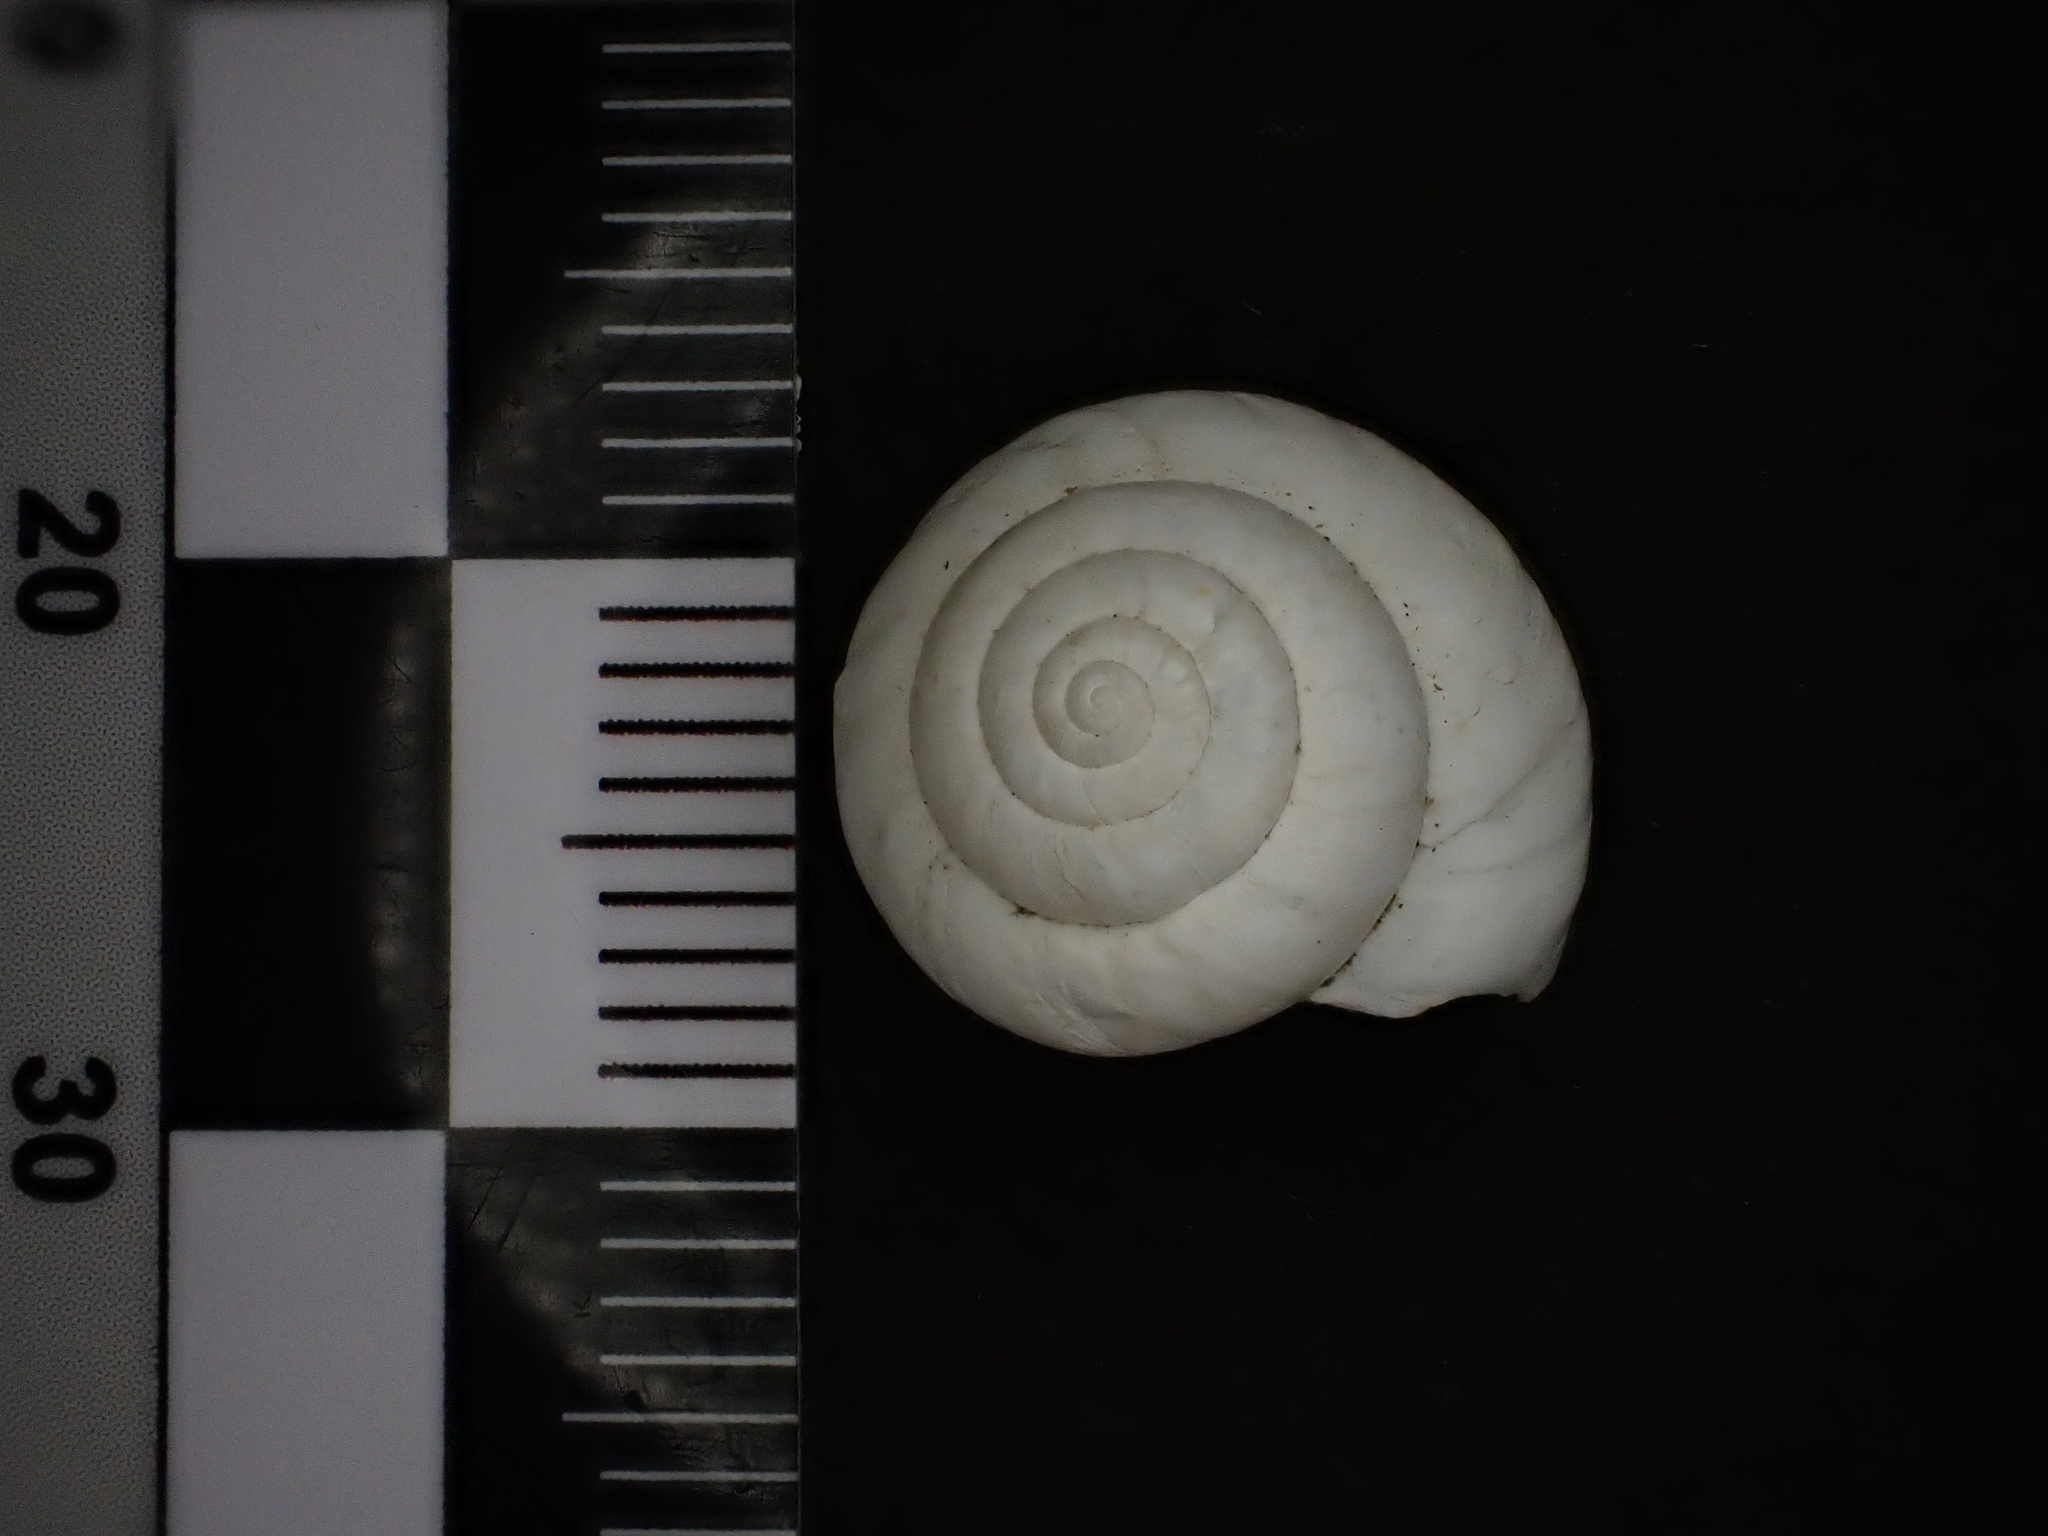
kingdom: Animalia
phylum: Mollusca
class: Gastropoda
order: Stylommatophora
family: Geomitridae
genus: Xeropicta
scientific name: Xeropicta derbentina
